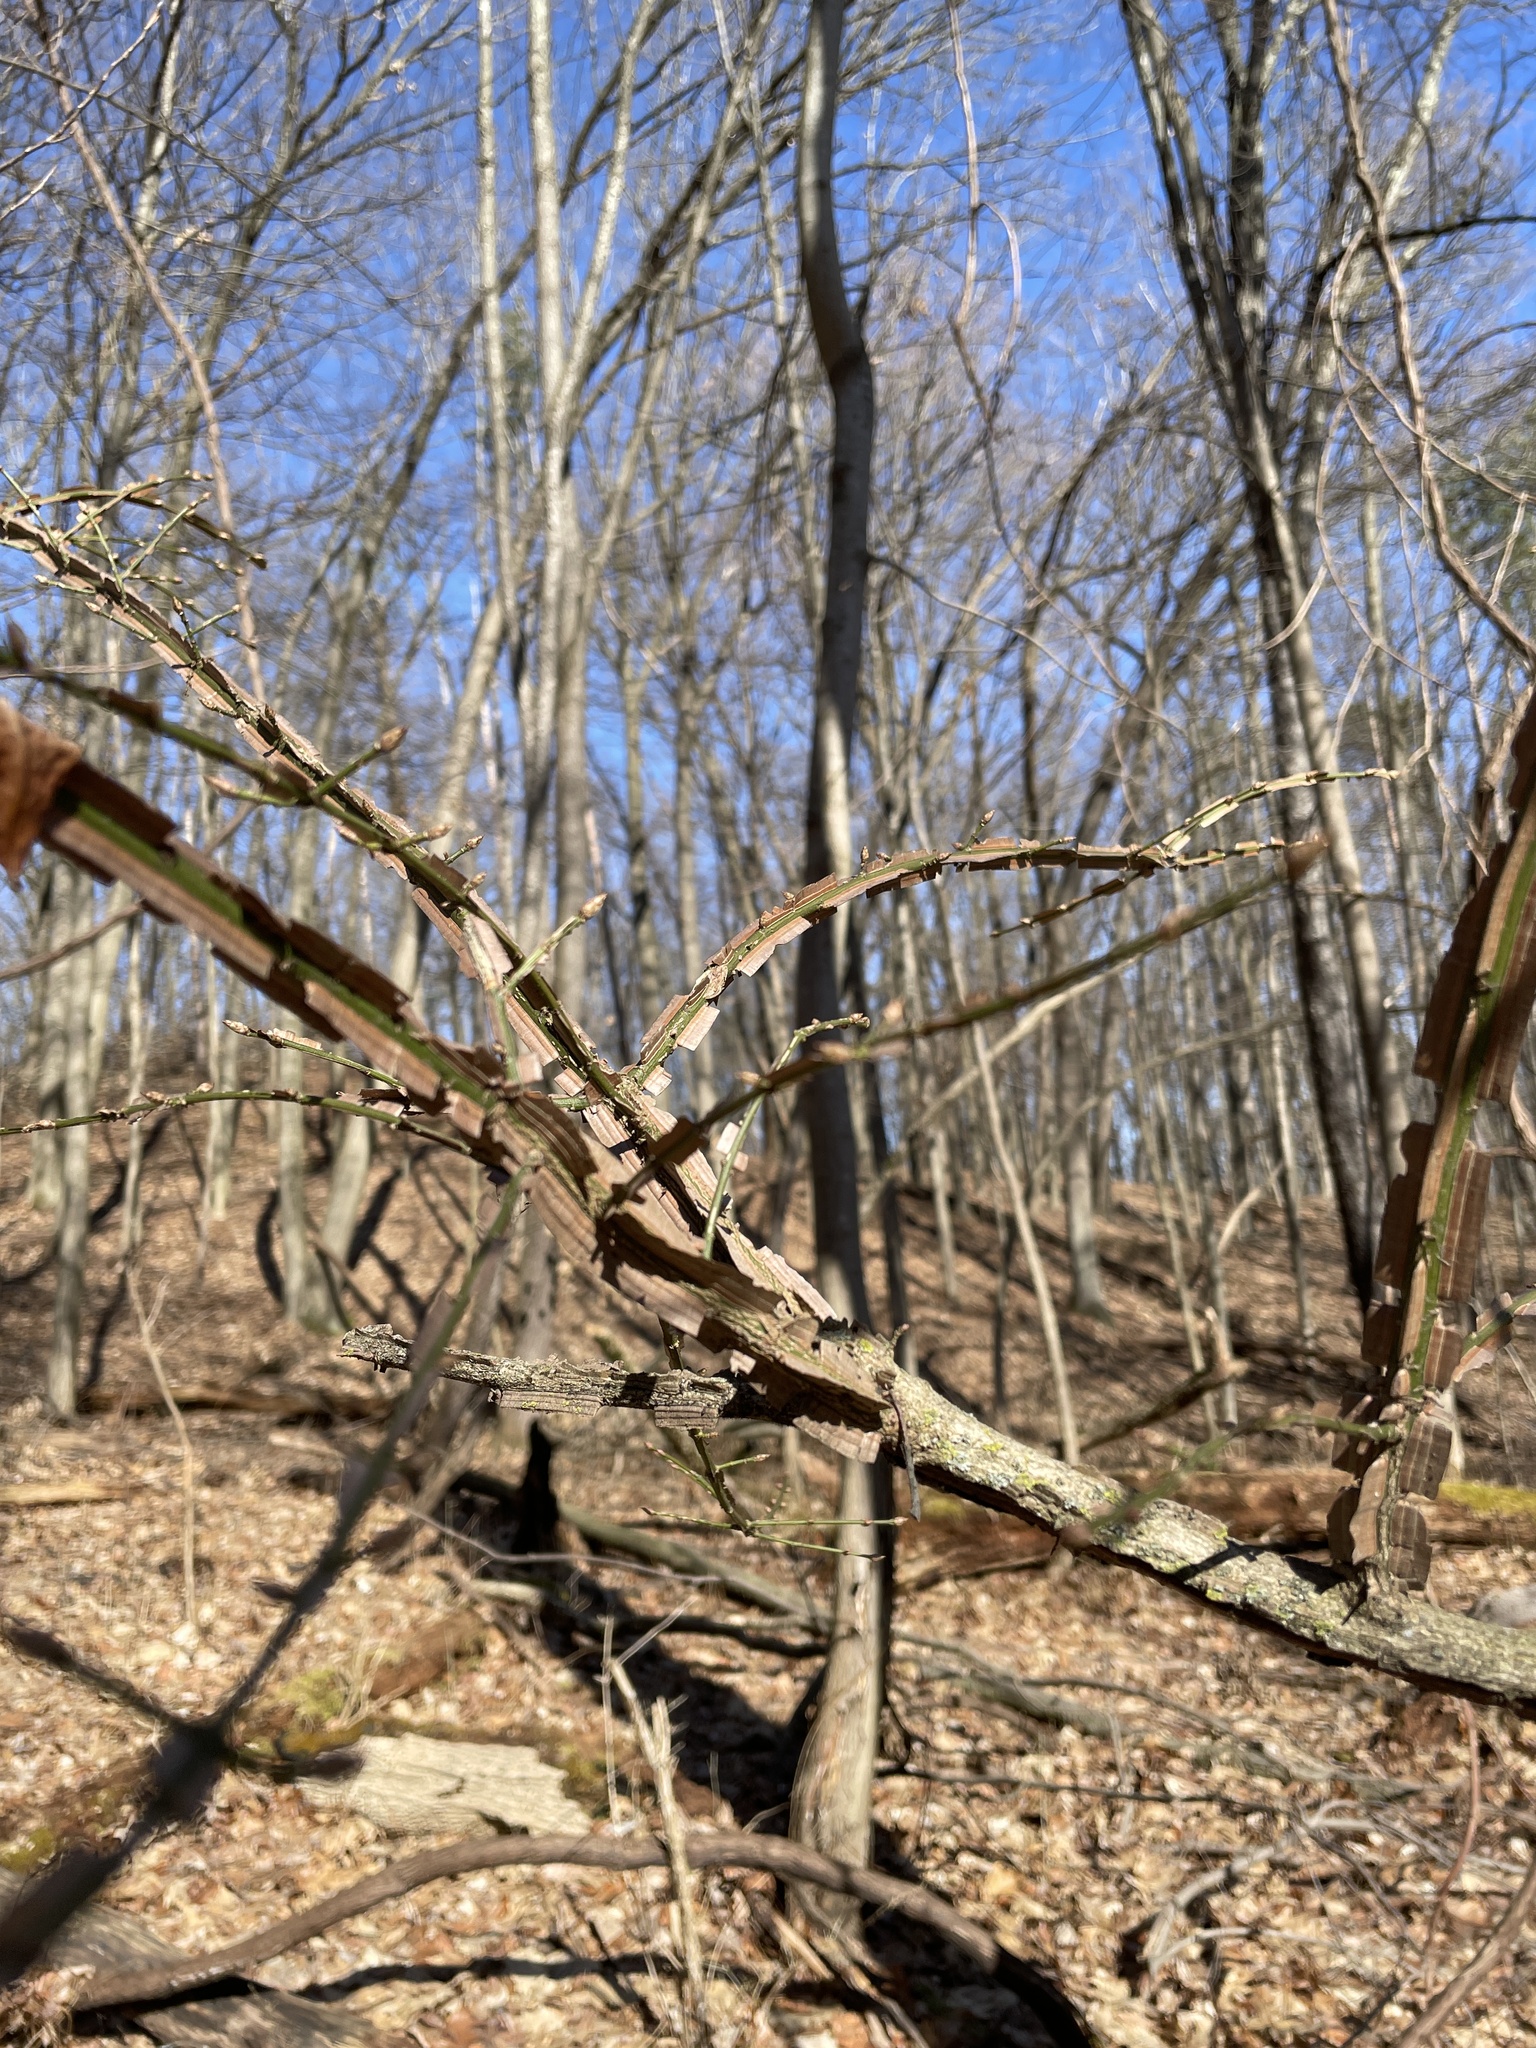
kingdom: Plantae
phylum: Tracheophyta
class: Magnoliopsida
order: Celastrales
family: Celastraceae
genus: Euonymus
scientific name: Euonymus alatus
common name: Winged euonymus
